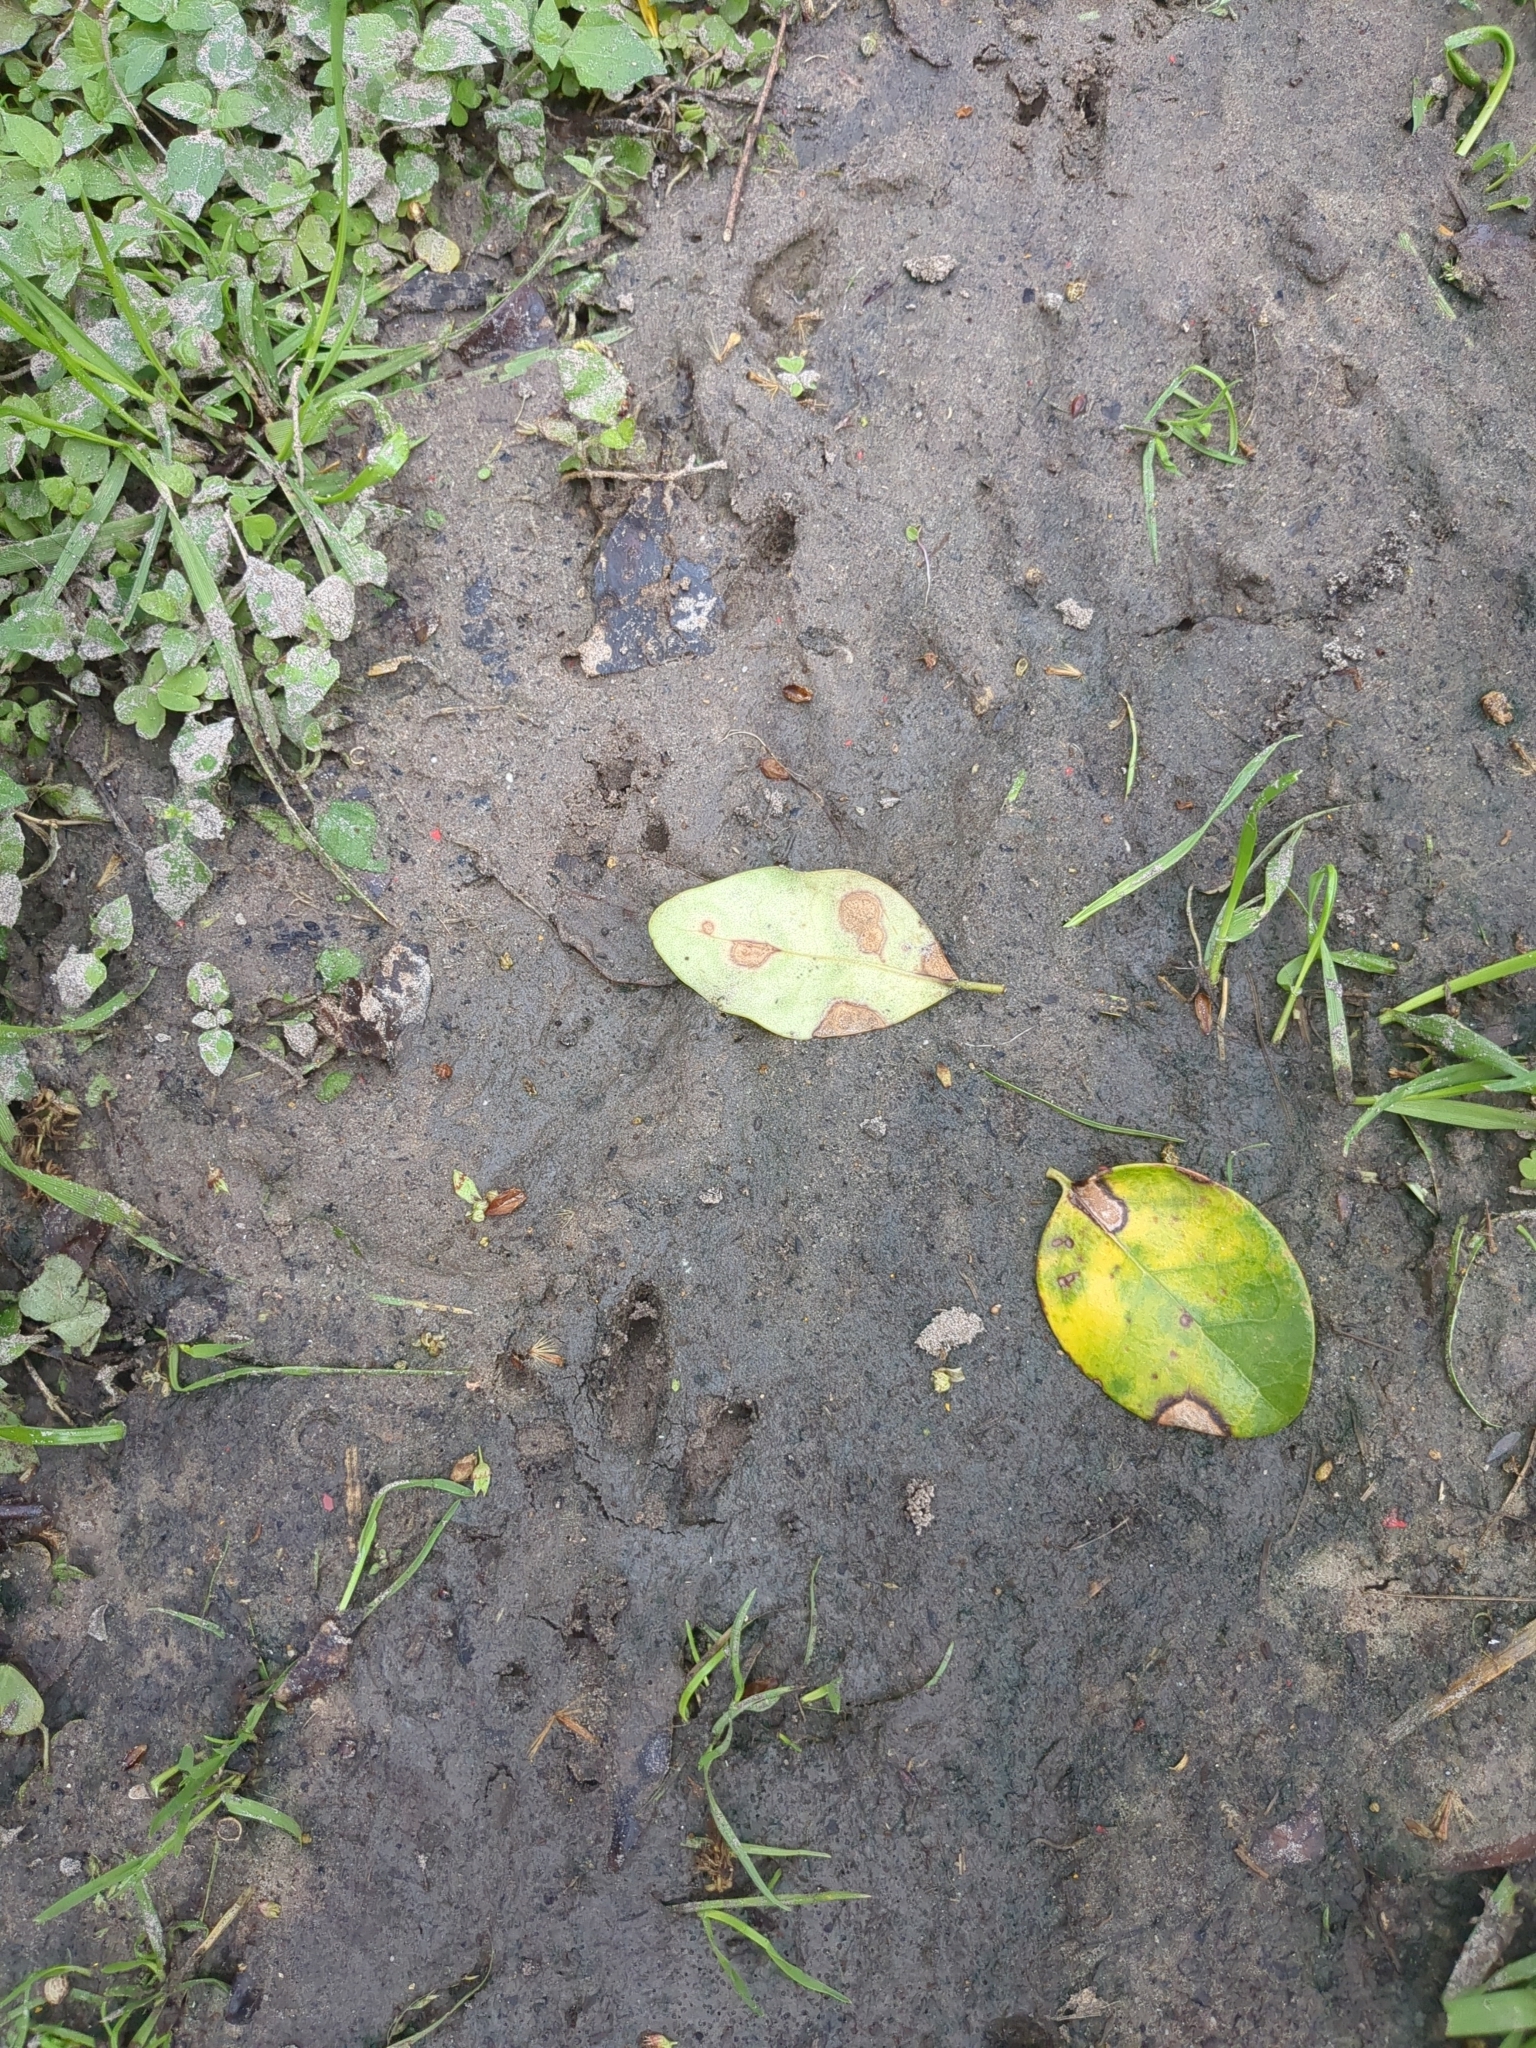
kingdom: Animalia
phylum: Chordata
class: Mammalia
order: Cingulata
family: Dasypodidae
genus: Dasypus
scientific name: Dasypus novemcinctus
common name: Nine-banded armadillo
